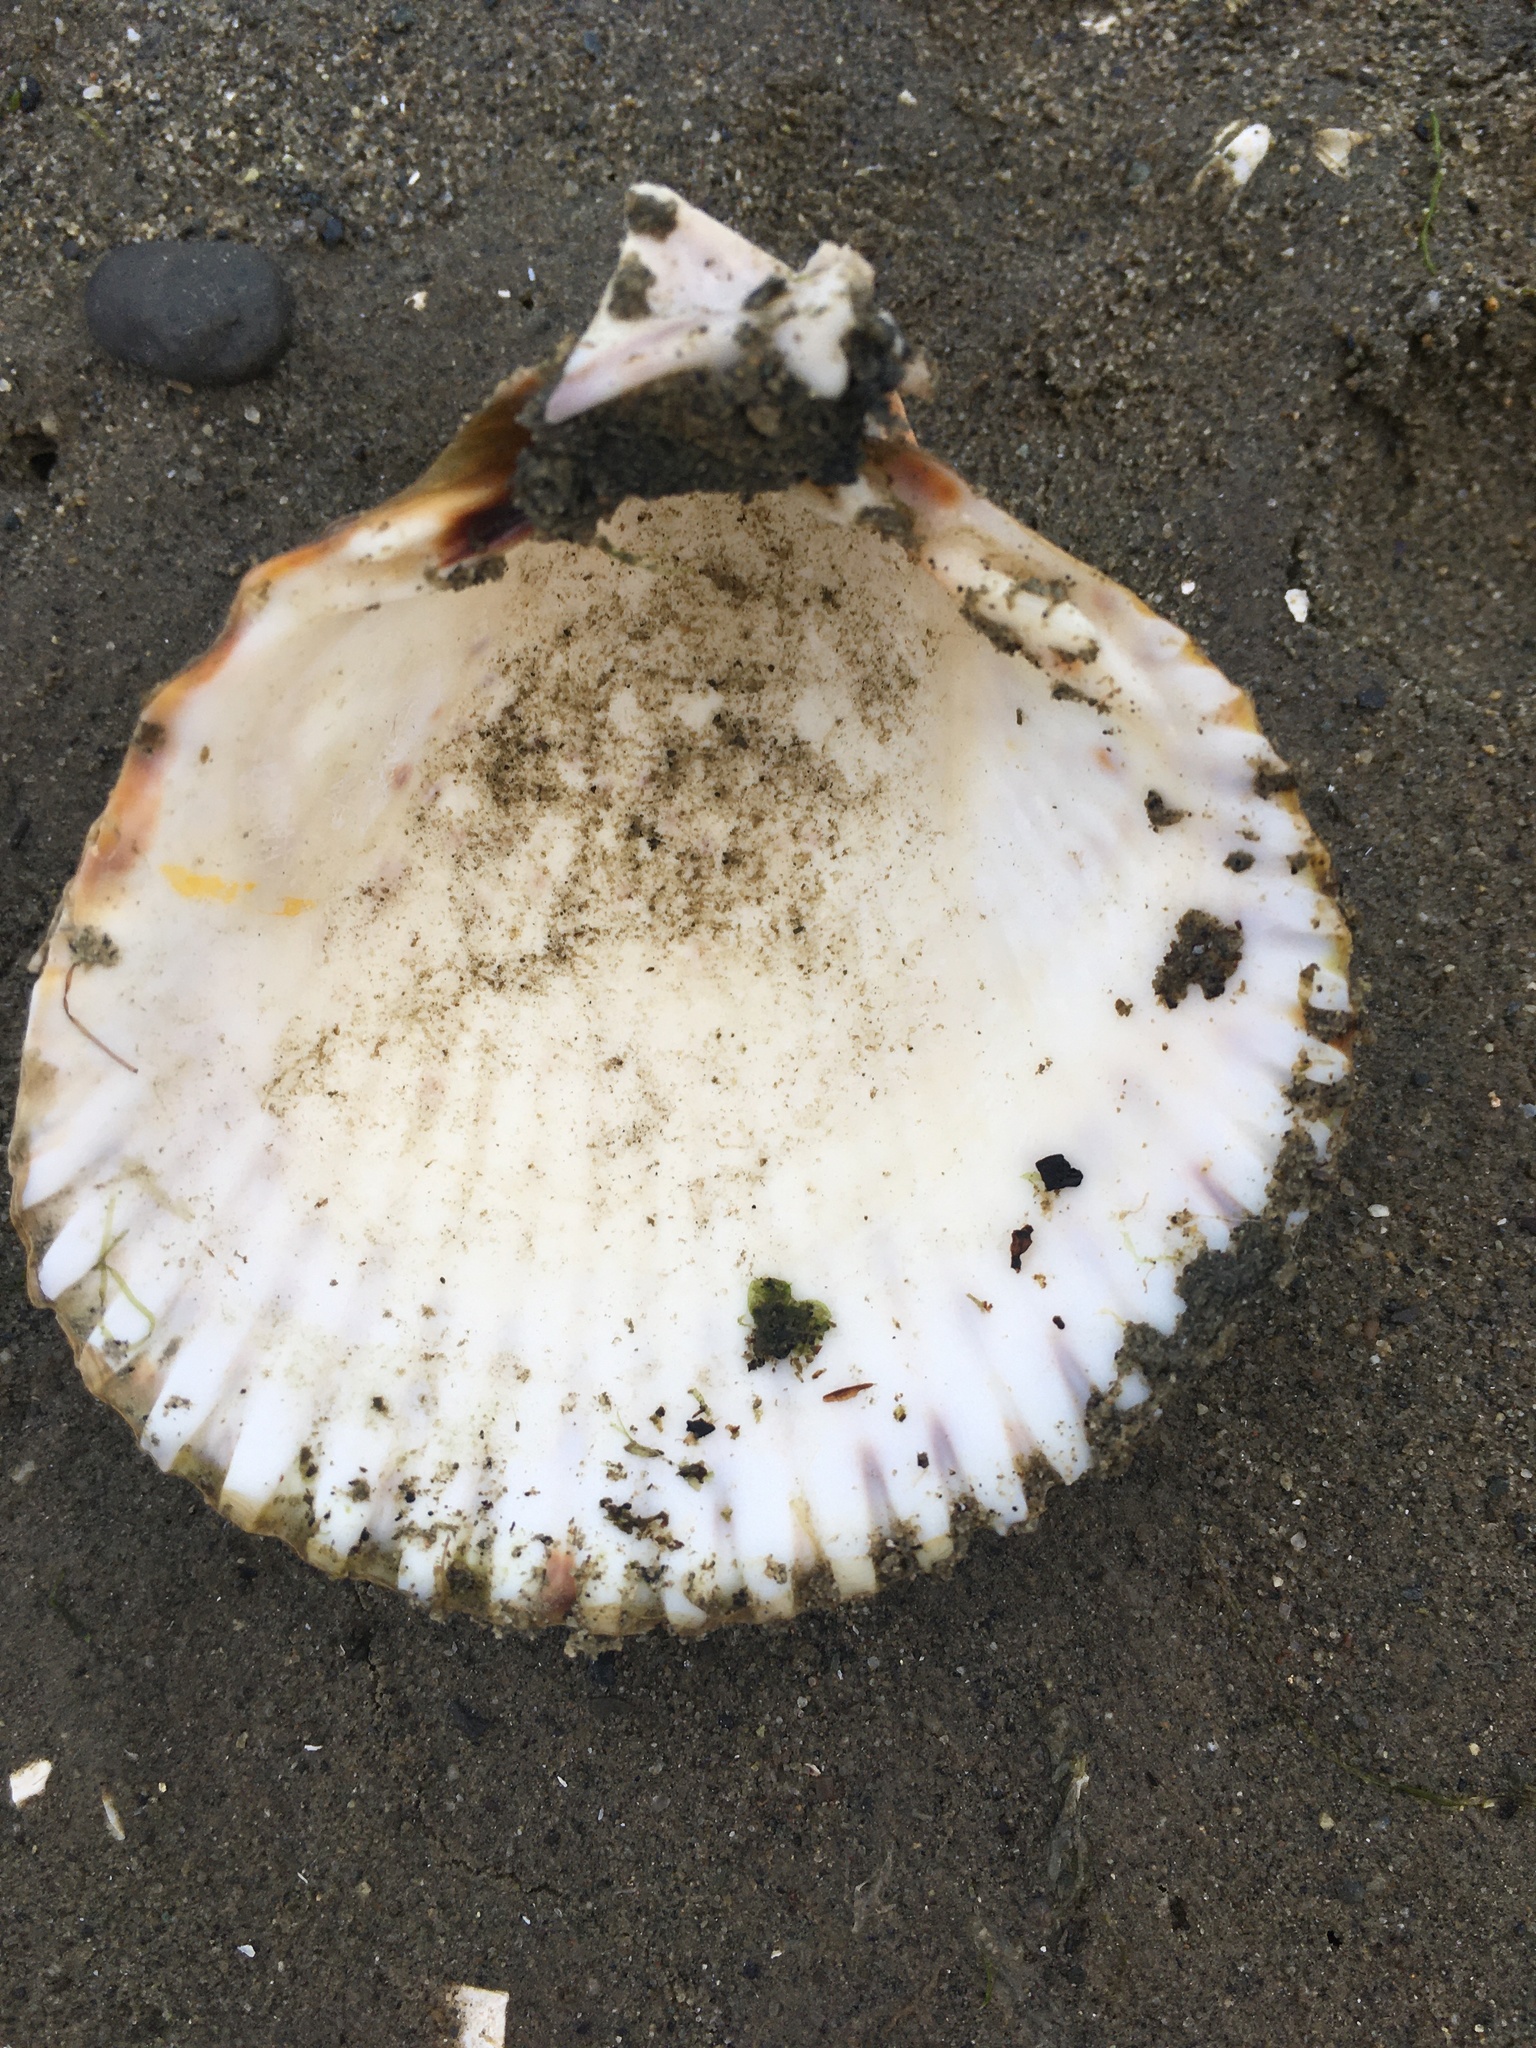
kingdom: Animalia
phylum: Mollusca
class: Bivalvia
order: Cardiida
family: Cardiidae
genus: Clinocardium
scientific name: Clinocardium nuttallii
